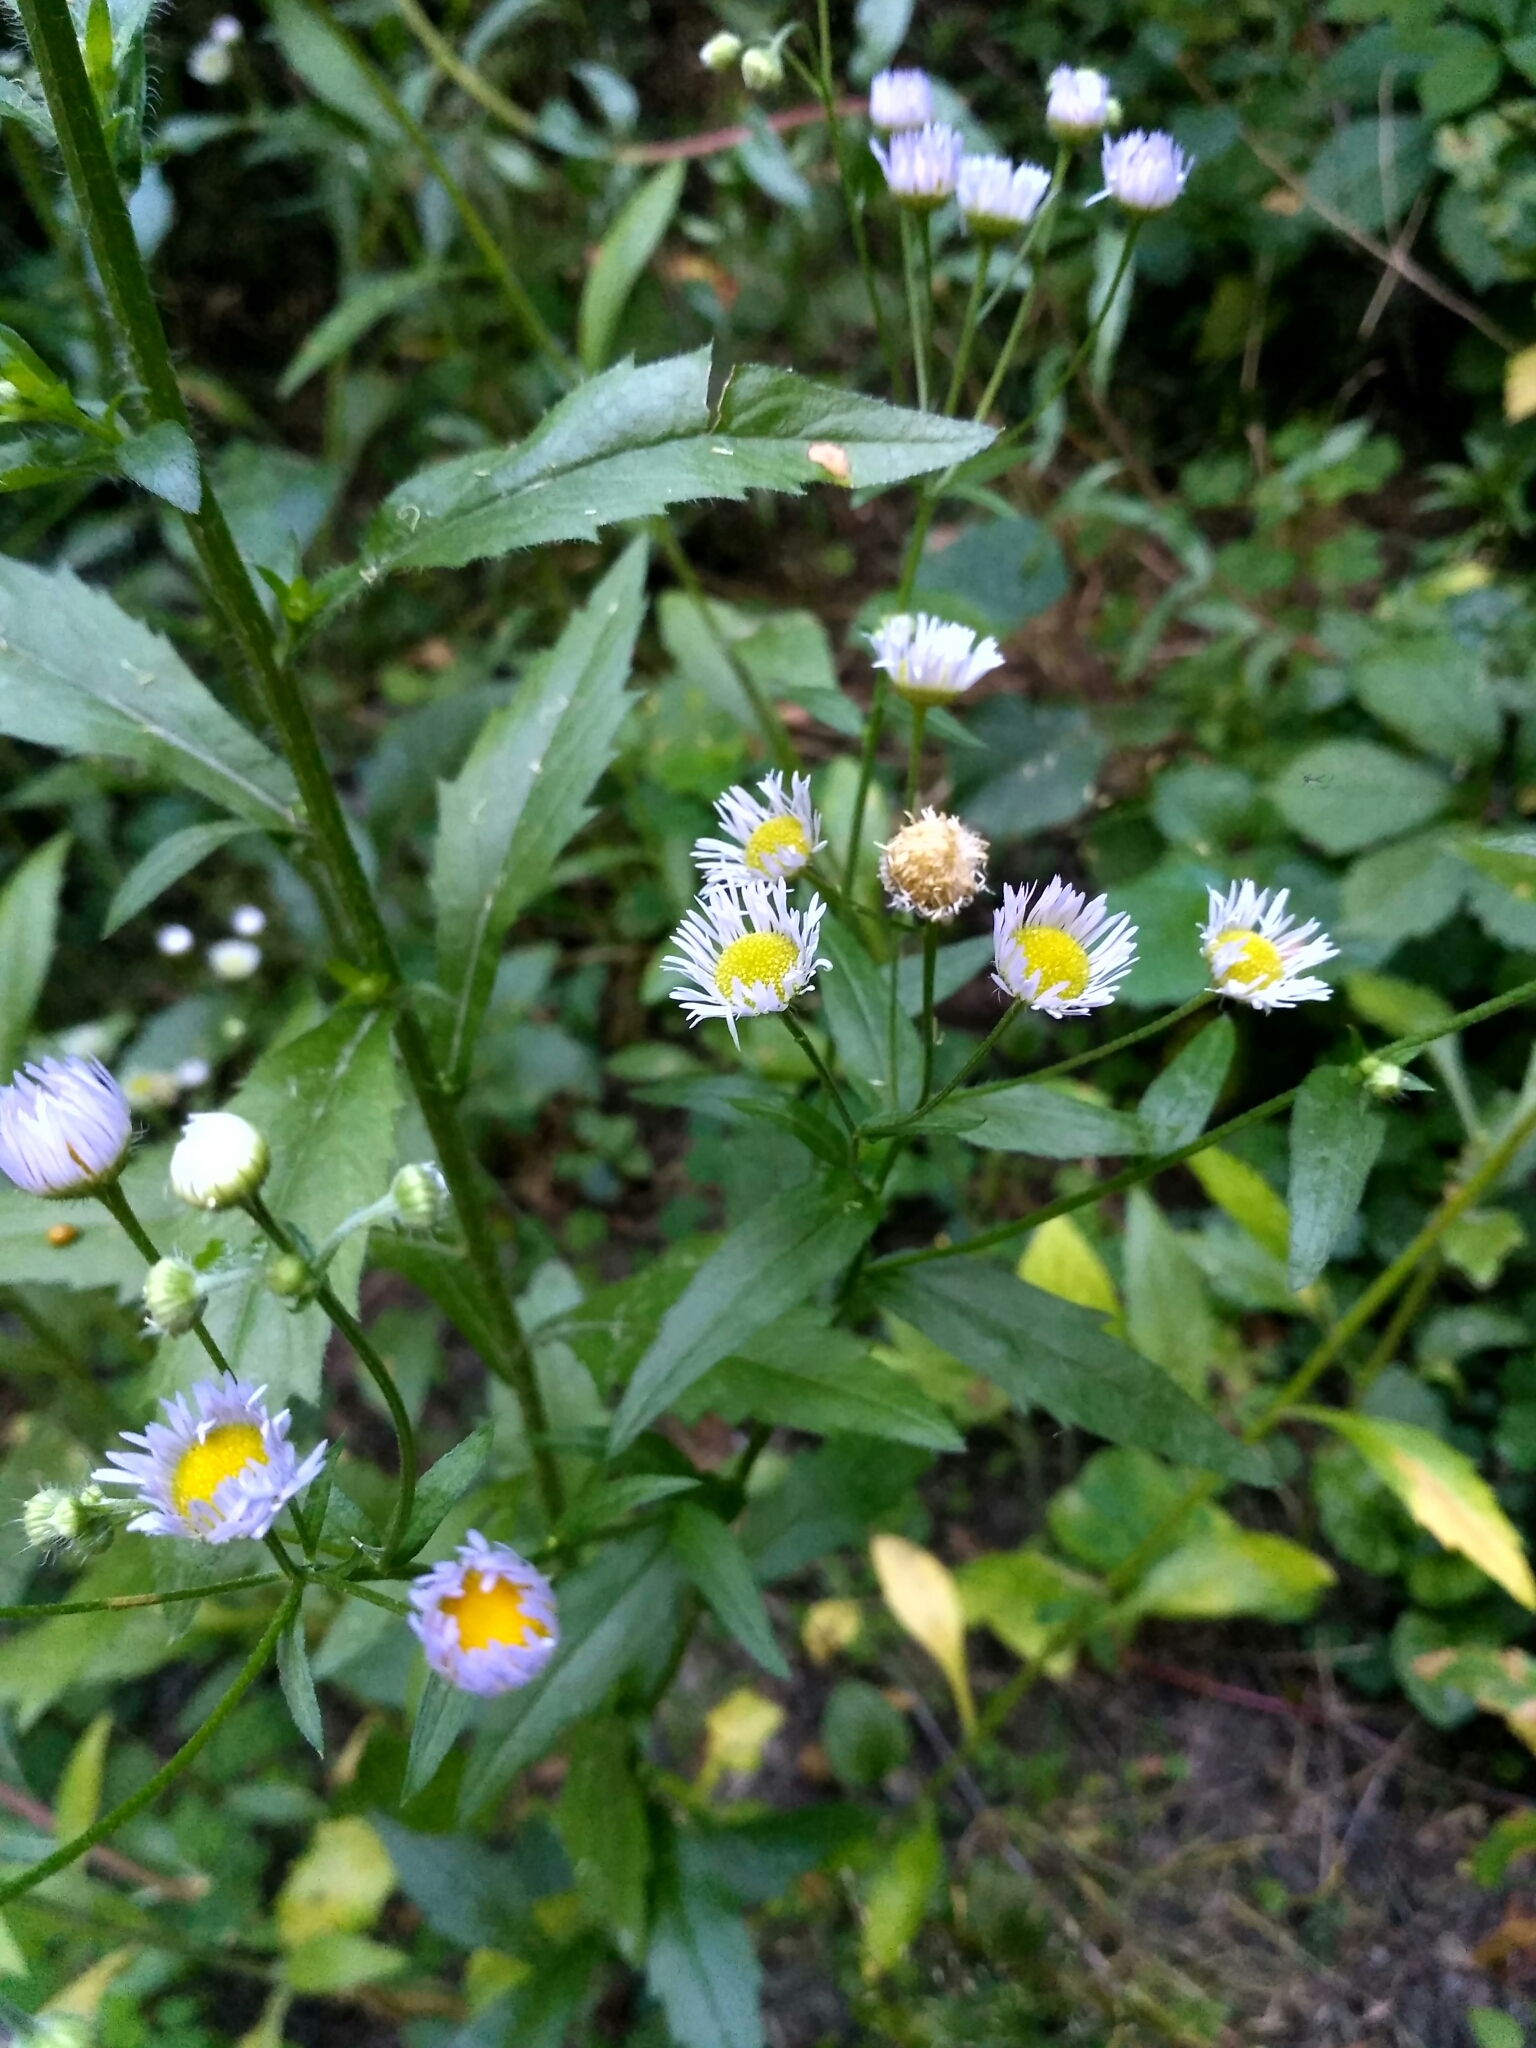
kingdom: Plantae
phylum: Tracheophyta
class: Magnoliopsida
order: Asterales
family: Asteraceae
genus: Erigeron
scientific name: Erigeron annuus
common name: Tall fleabane
